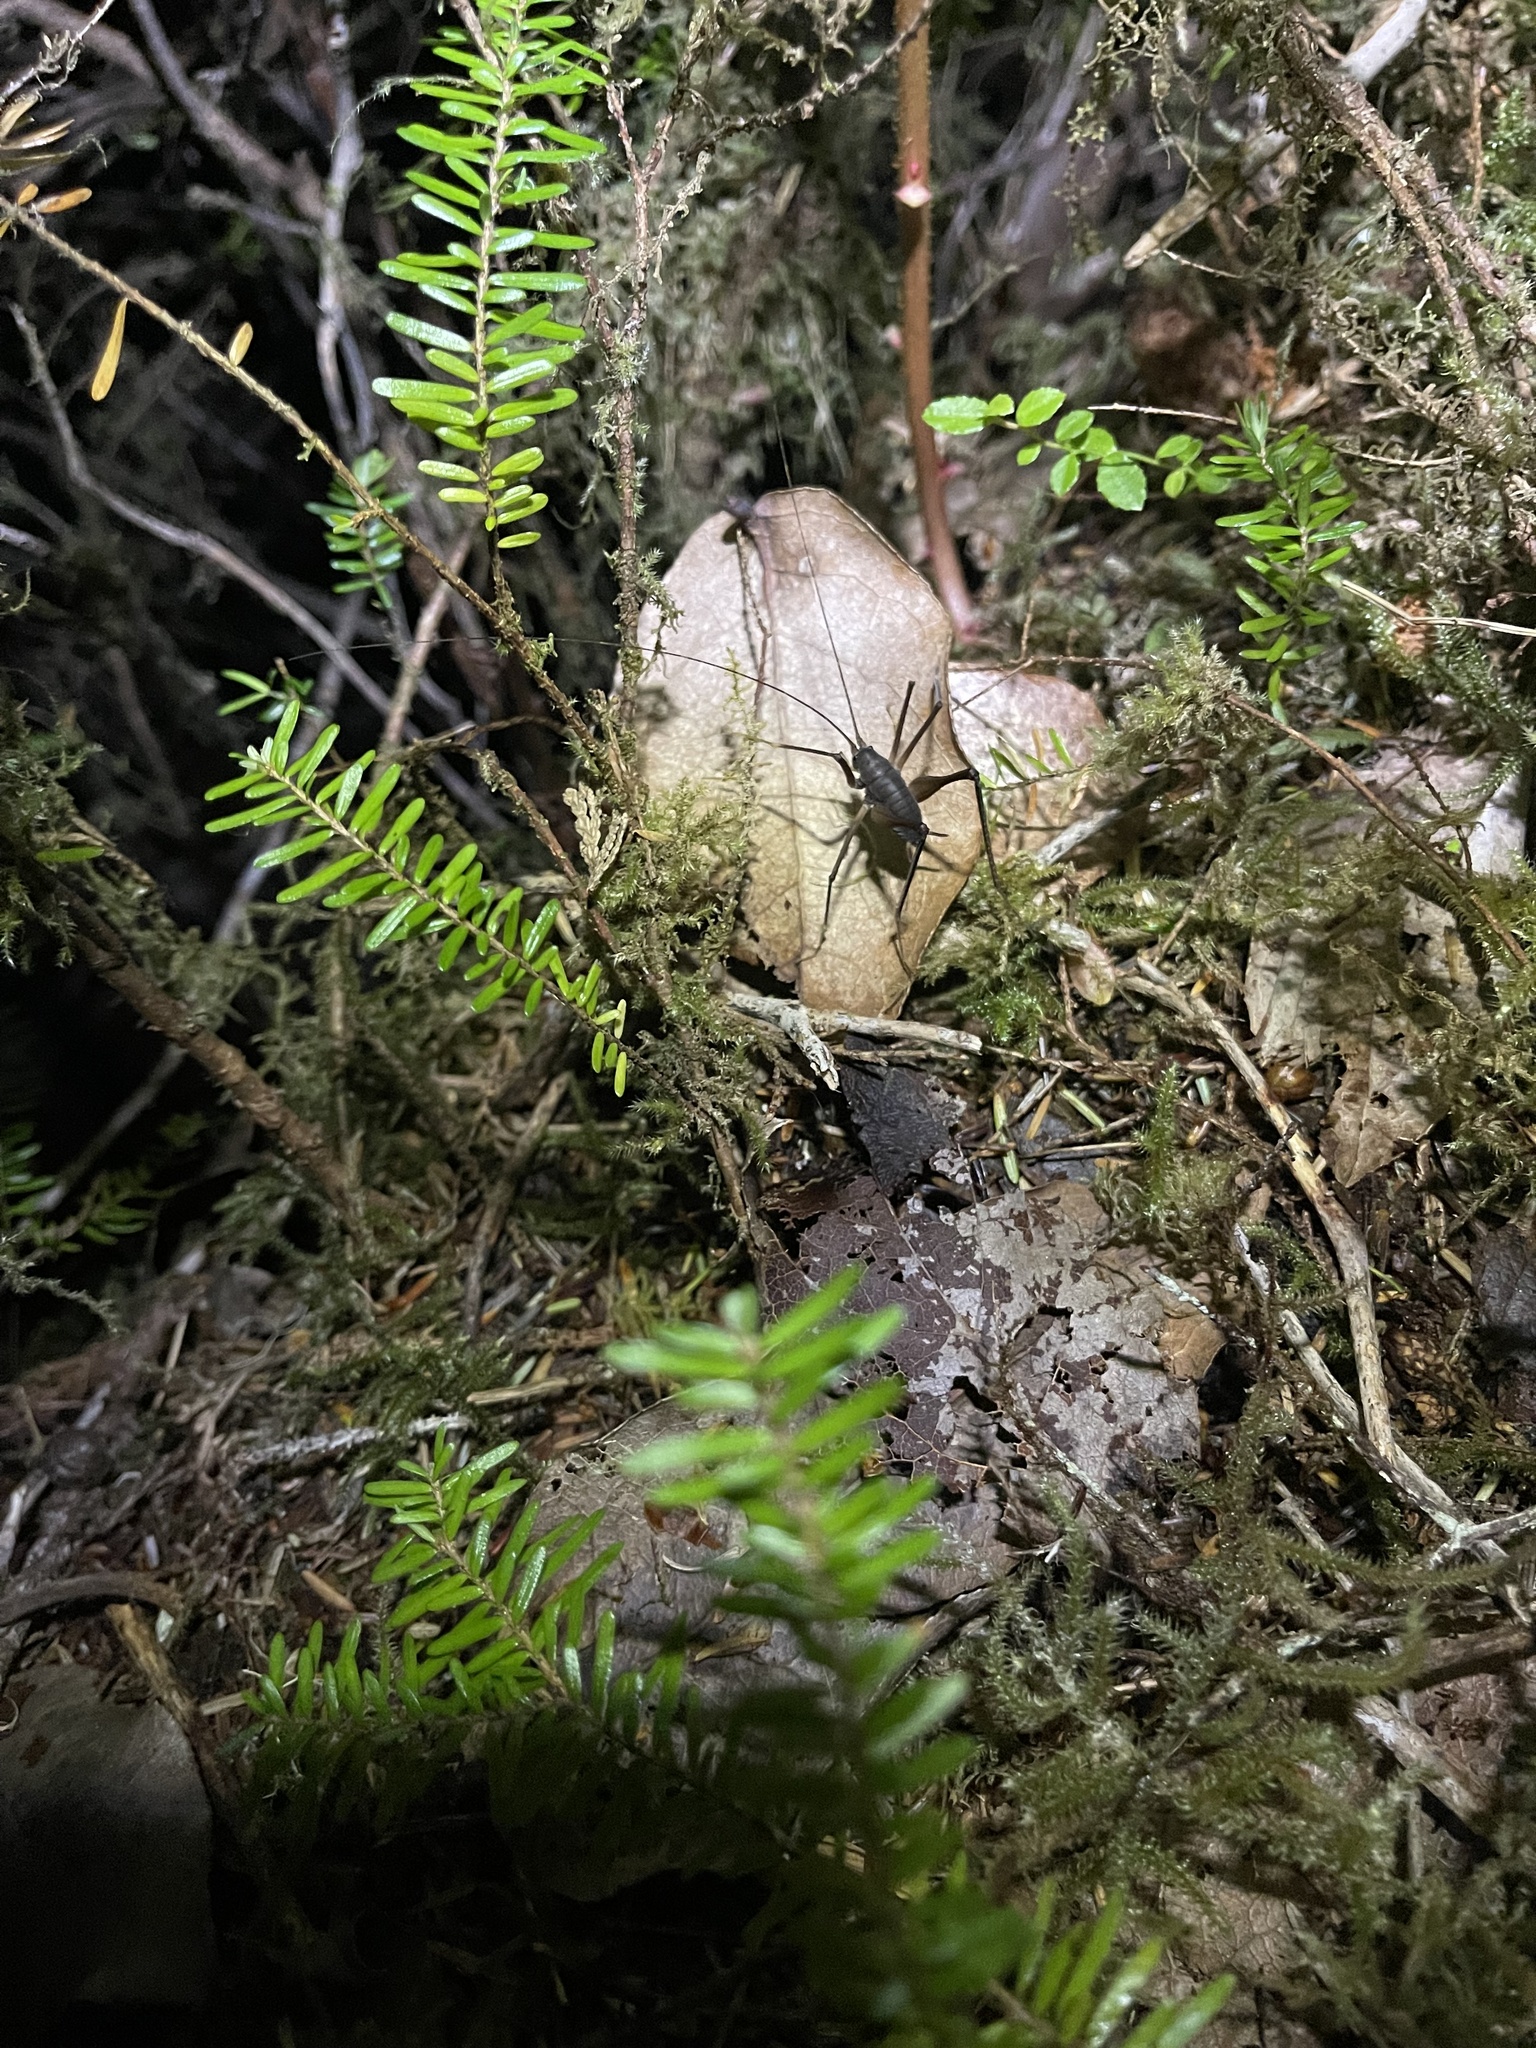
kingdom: Animalia
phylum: Arthropoda
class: Insecta
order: Orthoptera
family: Rhaphidophoridae
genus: Tropidischia
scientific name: Tropidischia xanthostoma
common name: Square-legged camel cricket
